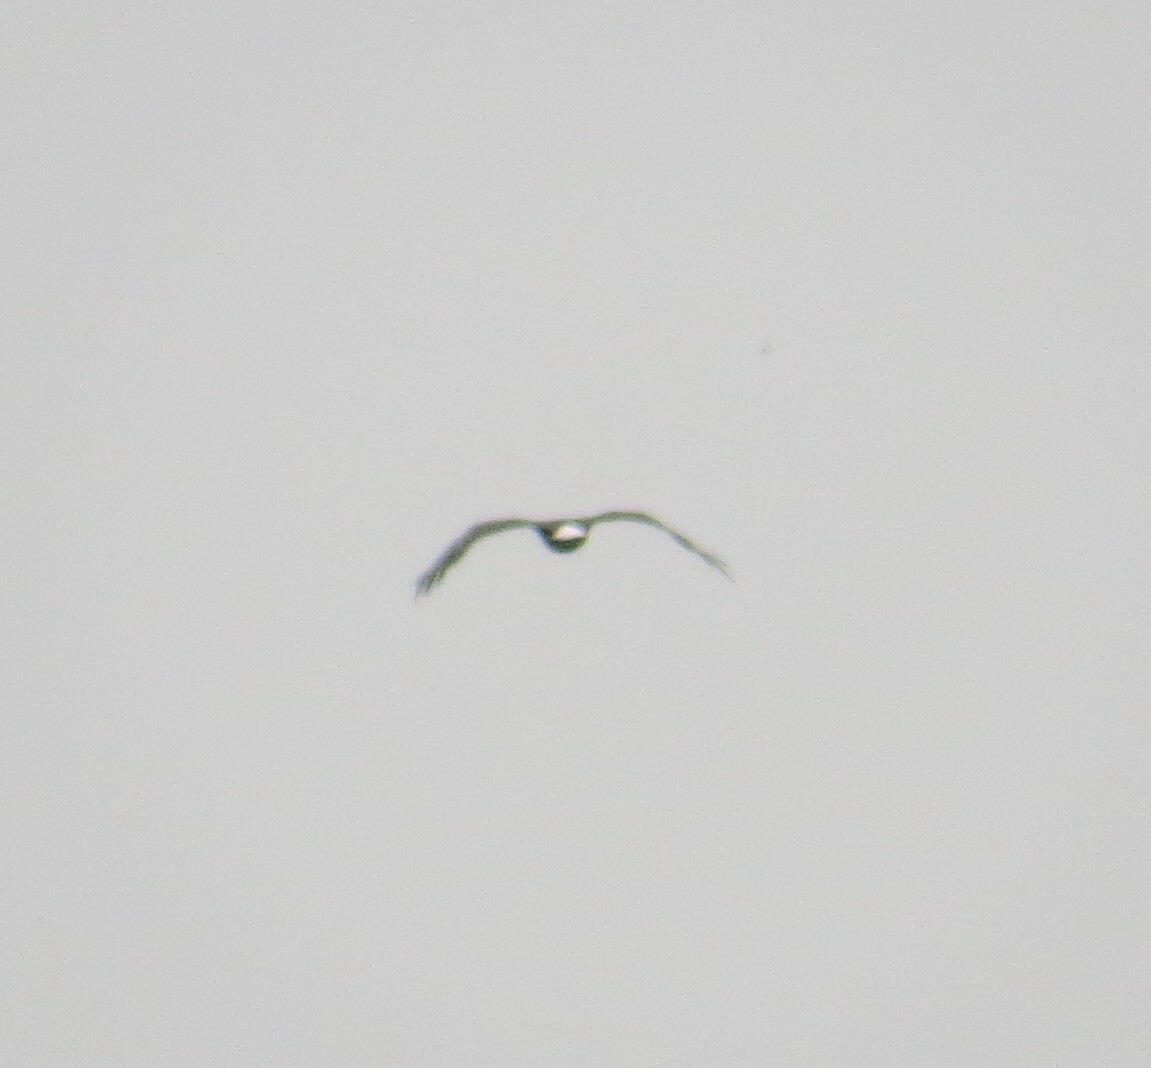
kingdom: Animalia
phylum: Chordata
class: Aves
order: Accipitriformes
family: Accipitridae
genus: Haliaeetus
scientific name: Haliaeetus leucocephalus
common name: Bald eagle
